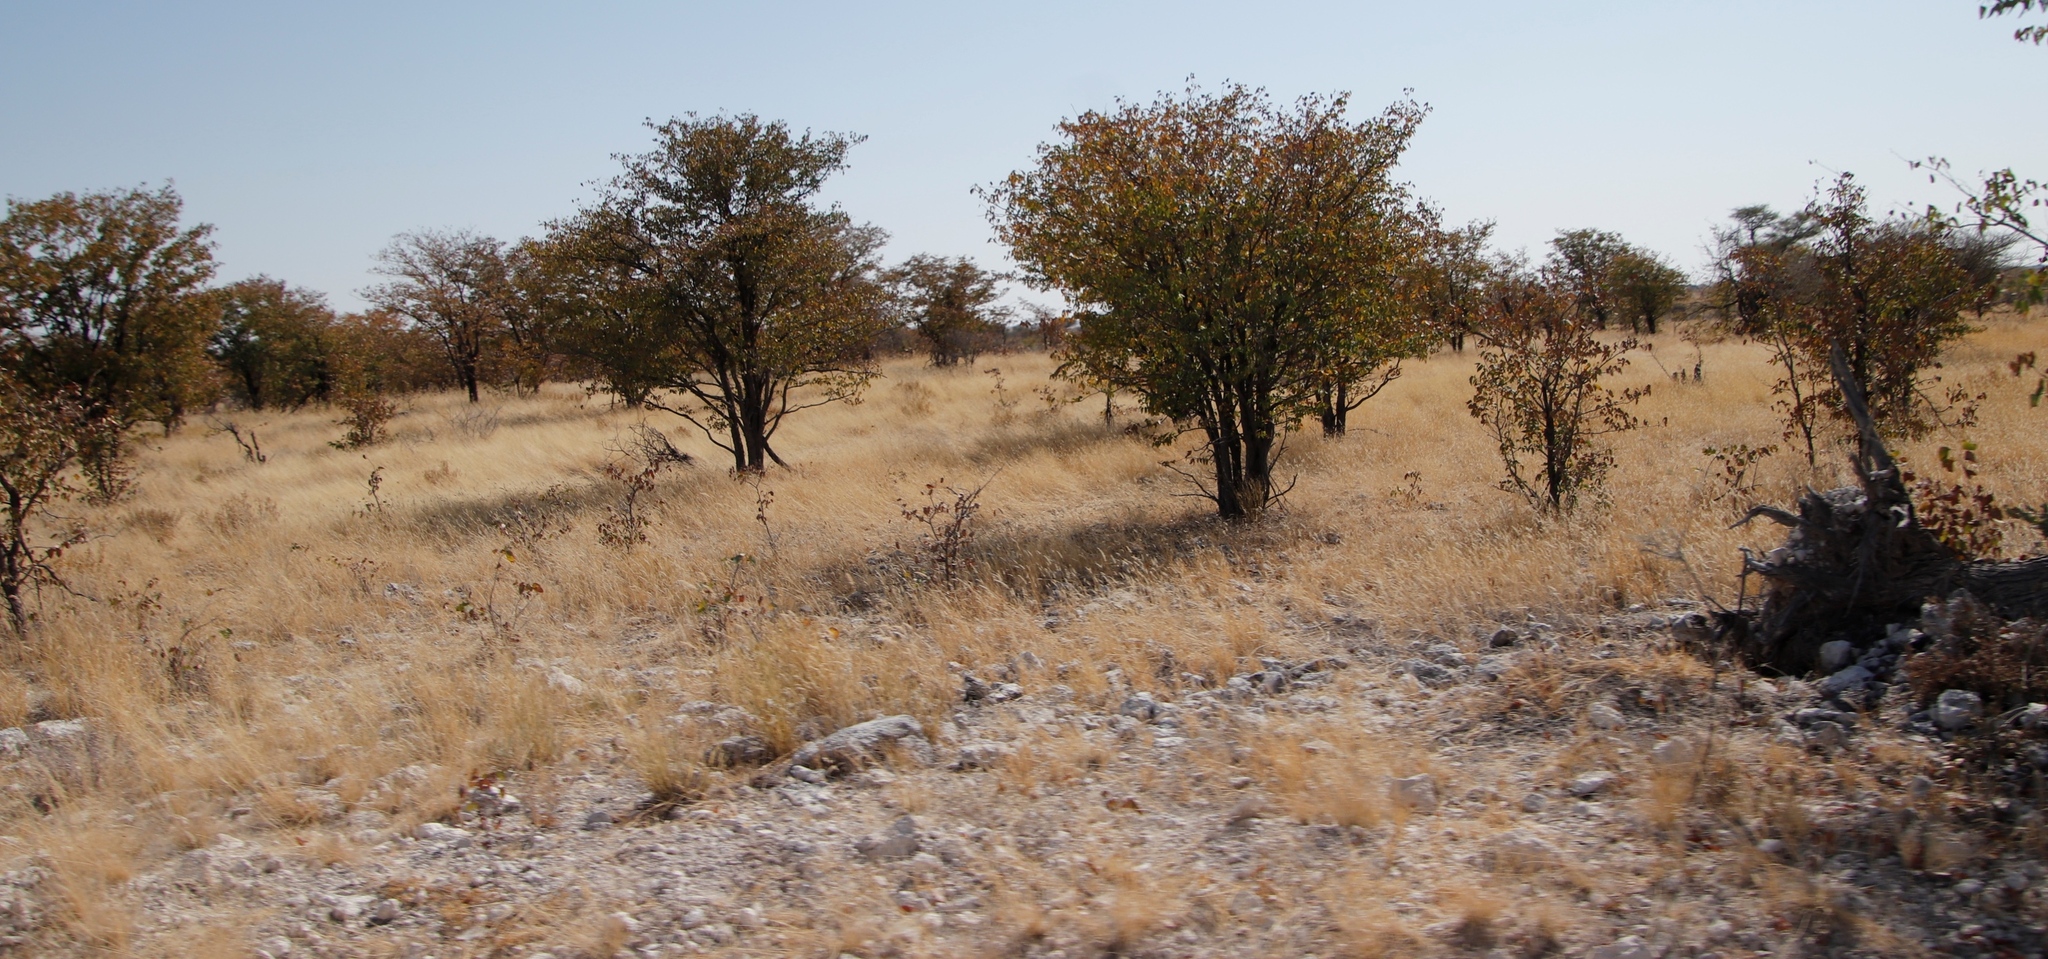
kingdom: Plantae
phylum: Tracheophyta
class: Magnoliopsida
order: Fabales
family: Fabaceae
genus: Colophospermum
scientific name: Colophospermum mopane
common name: Mopane
